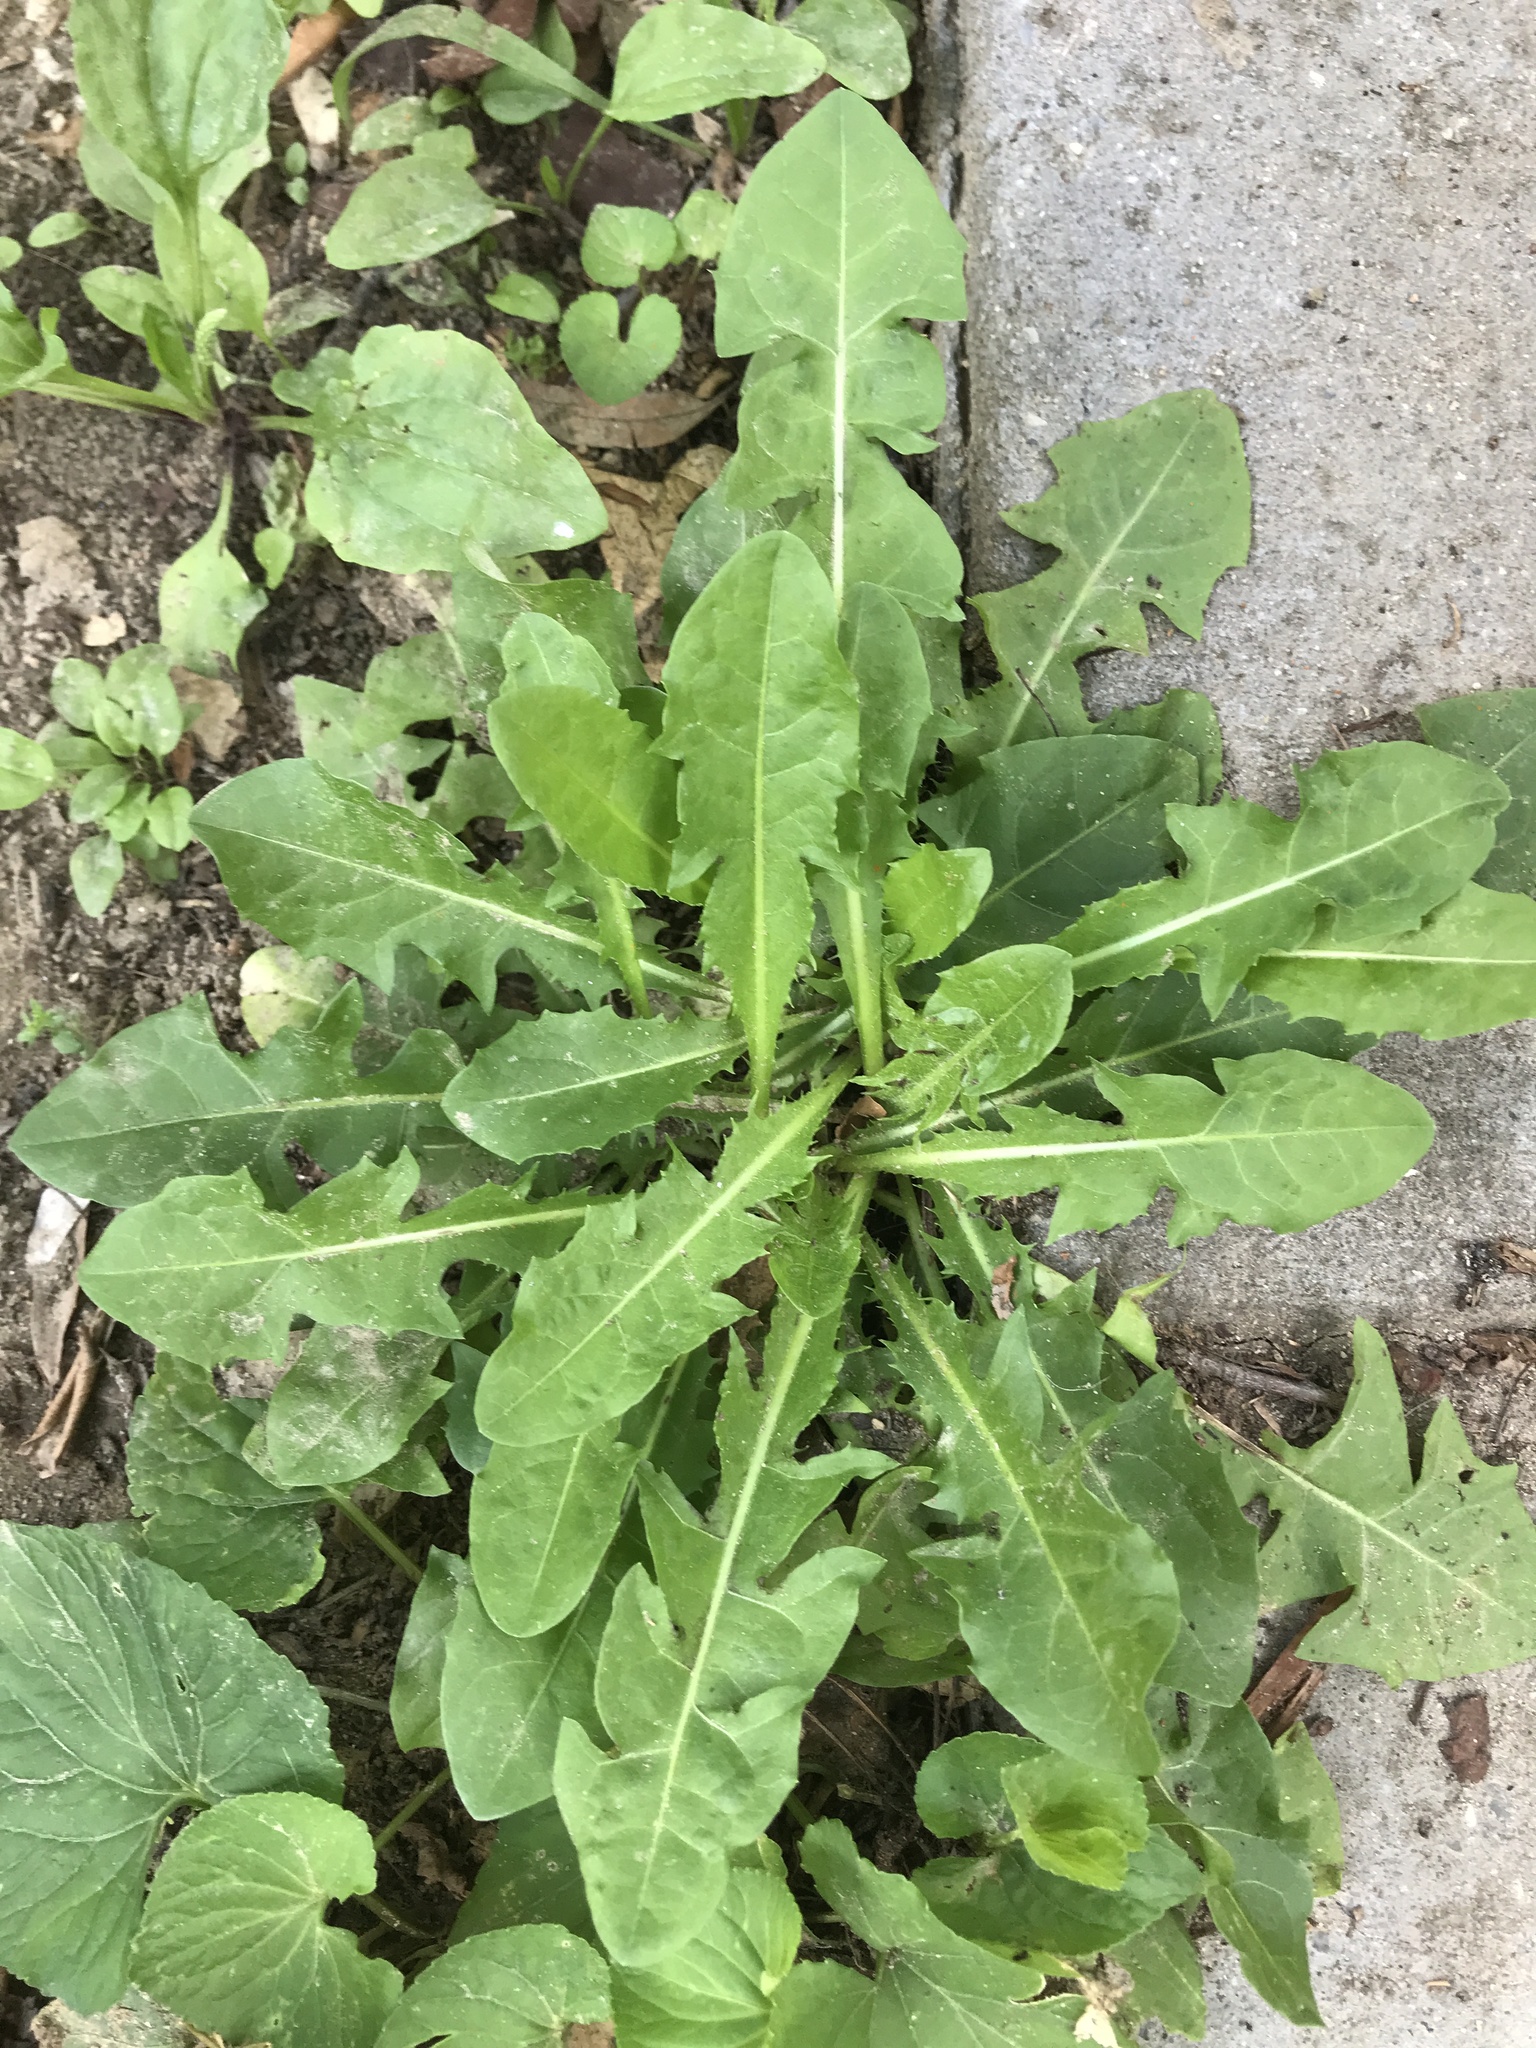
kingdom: Plantae
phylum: Tracheophyta
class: Magnoliopsida
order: Asterales
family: Asteraceae
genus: Taraxacum
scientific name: Taraxacum officinale
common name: Common dandelion
